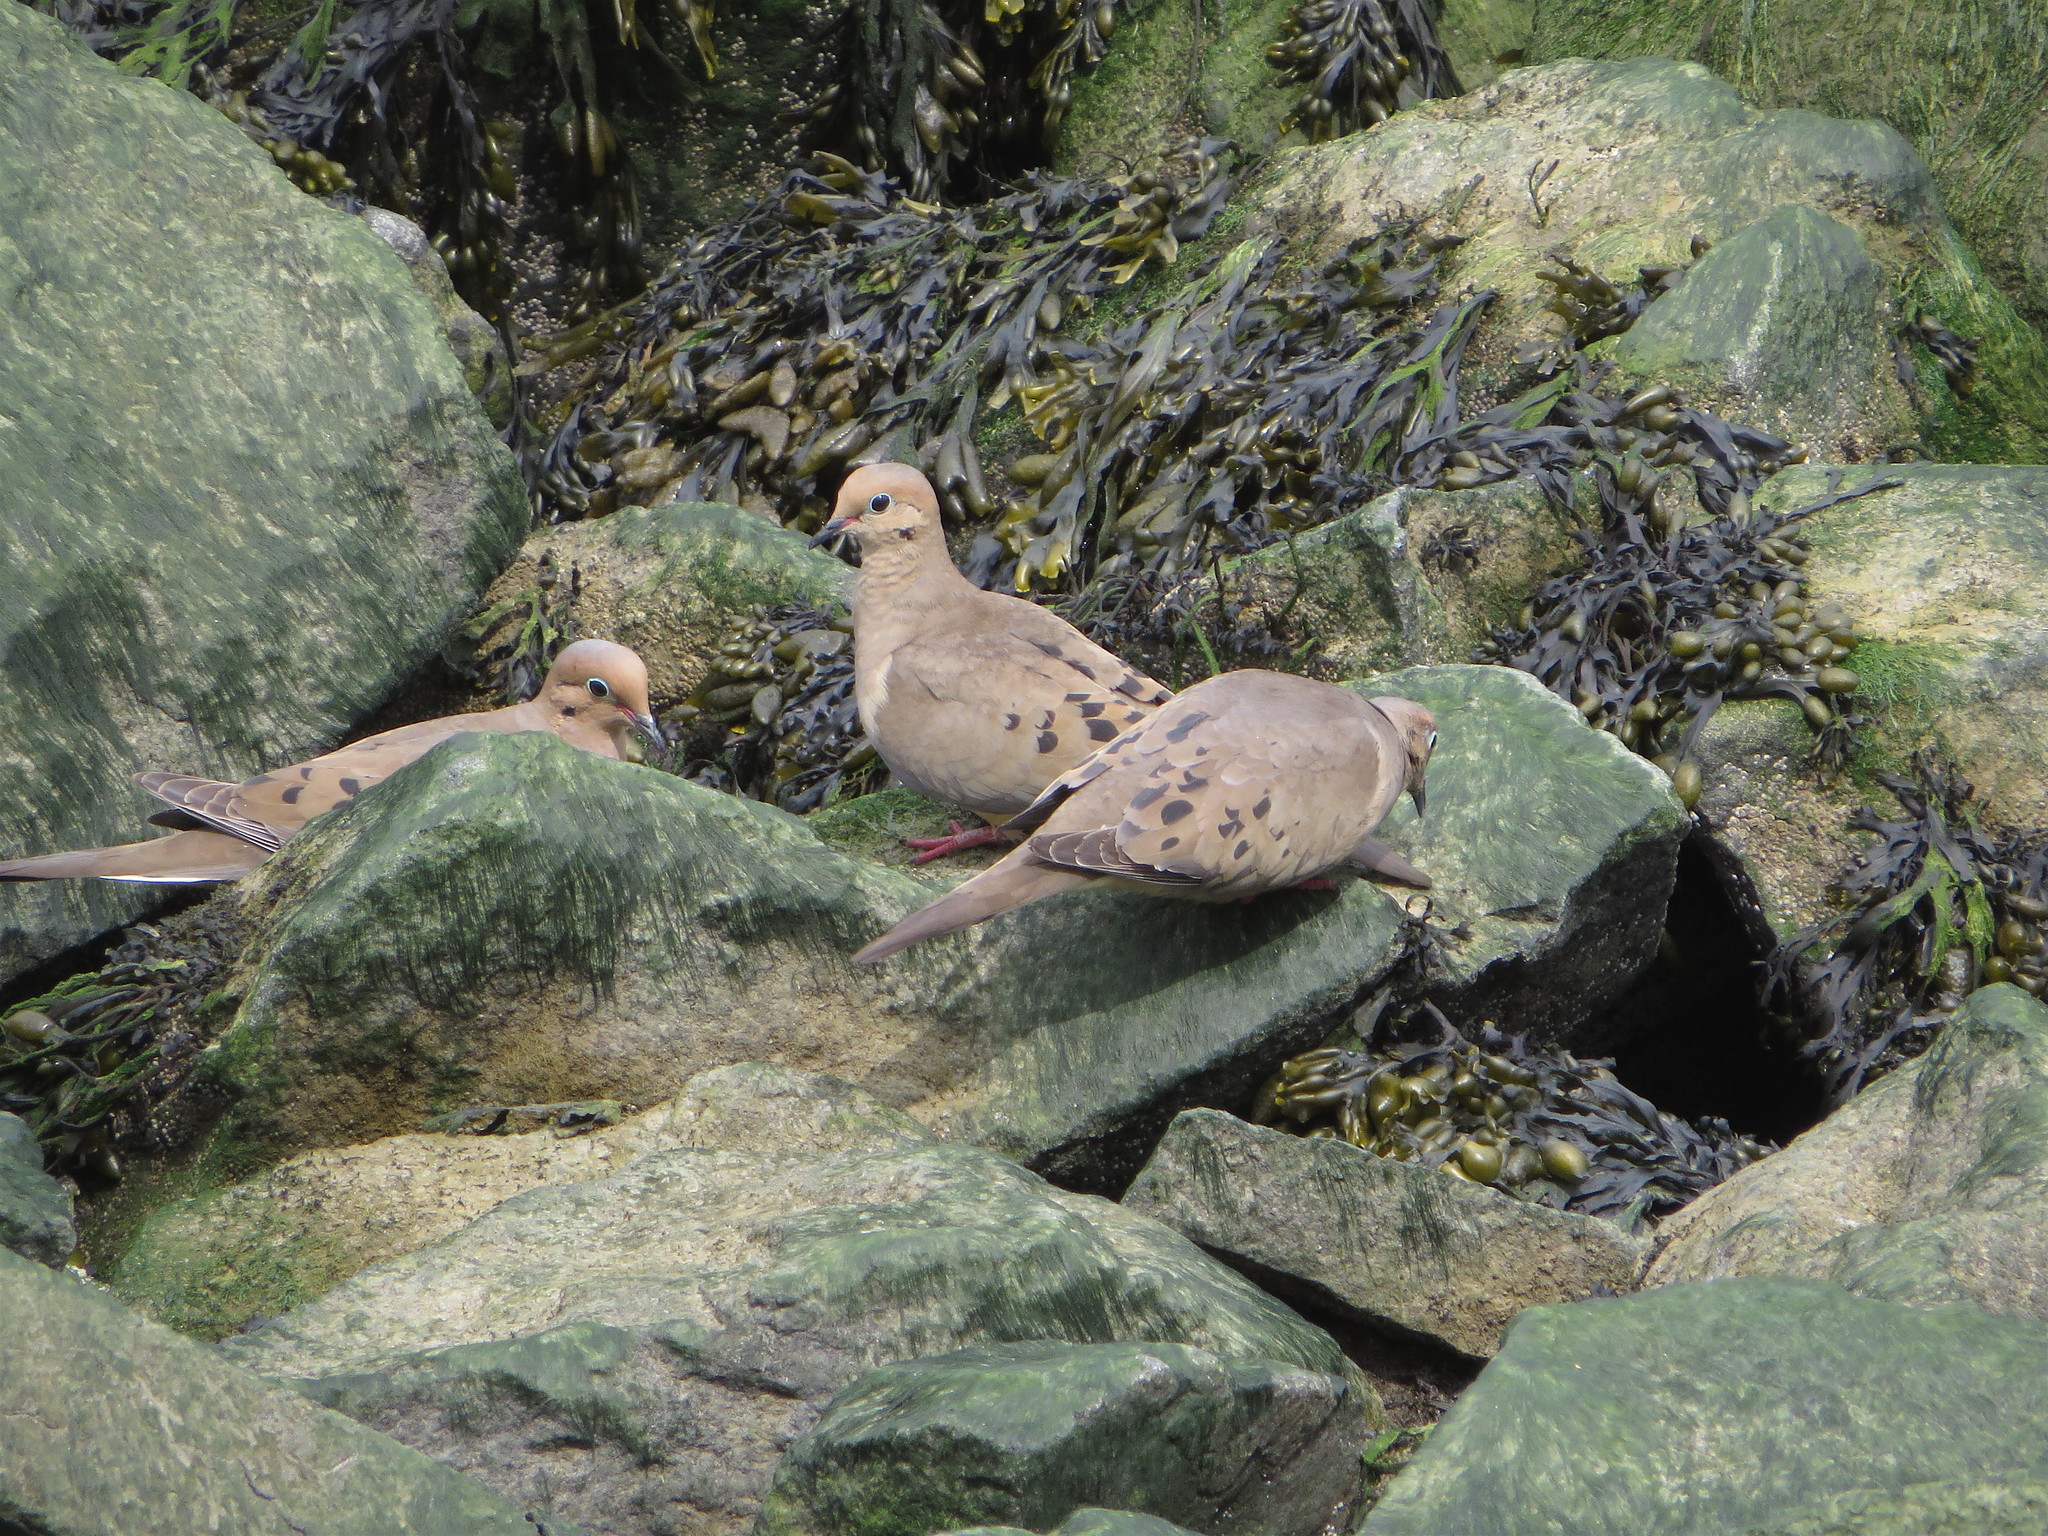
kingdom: Animalia
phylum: Chordata
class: Aves
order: Columbiformes
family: Columbidae
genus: Zenaida
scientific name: Zenaida macroura
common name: Mourning dove
